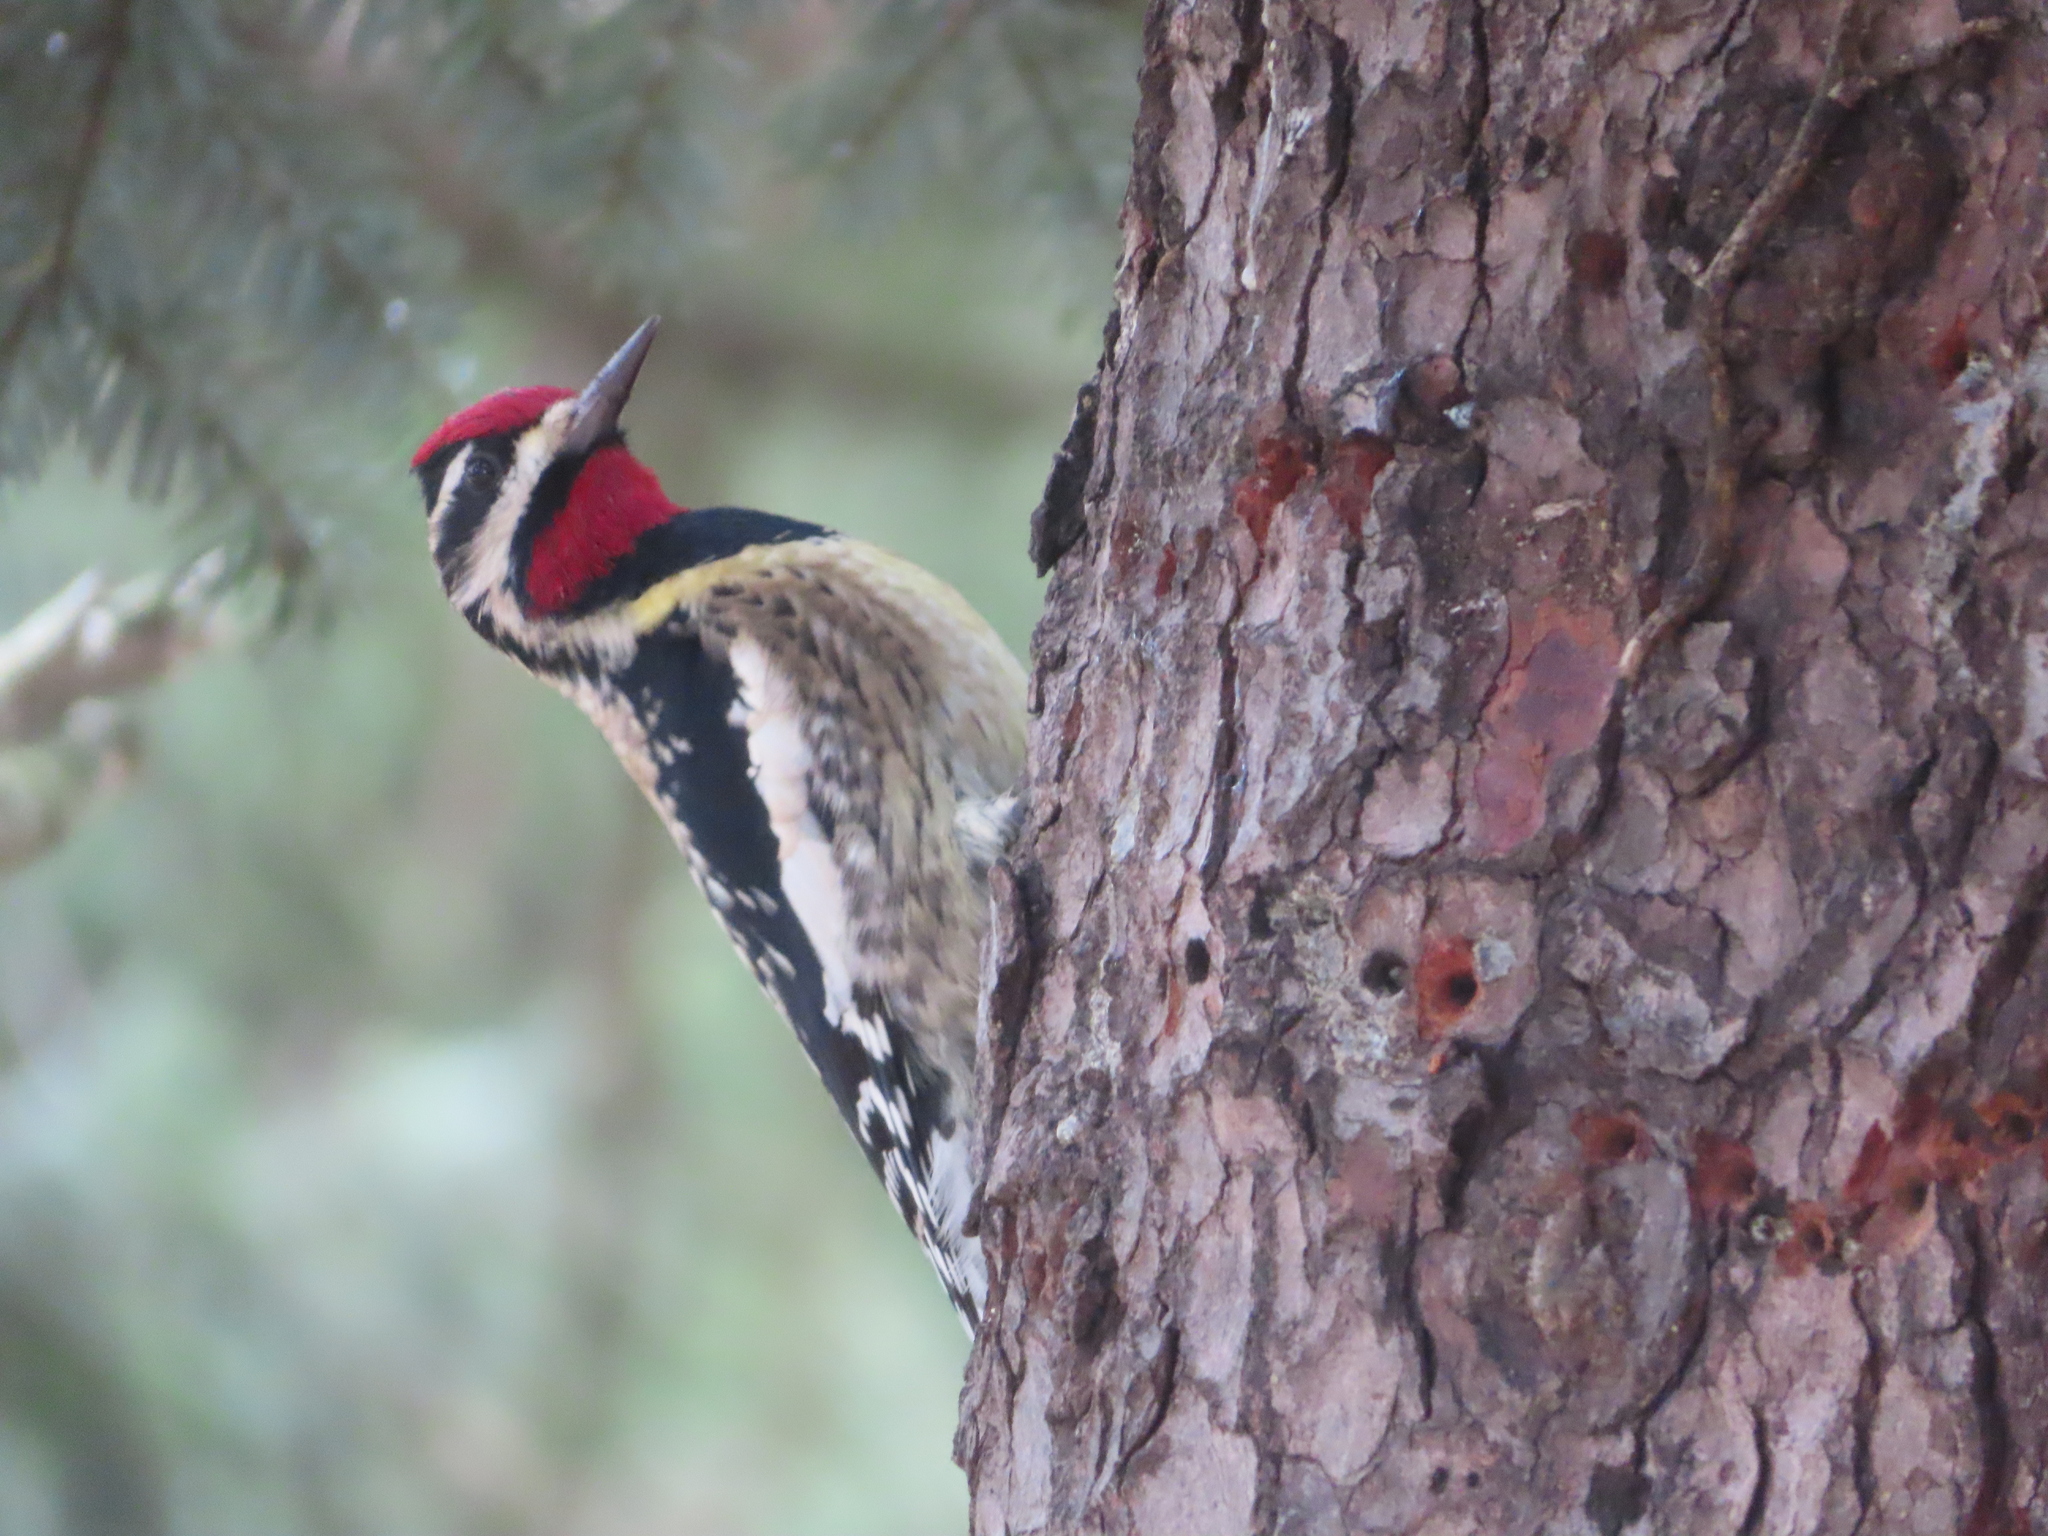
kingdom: Animalia
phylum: Chordata
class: Aves
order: Piciformes
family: Picidae
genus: Sphyrapicus
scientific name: Sphyrapicus varius
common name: Yellow-bellied sapsucker
